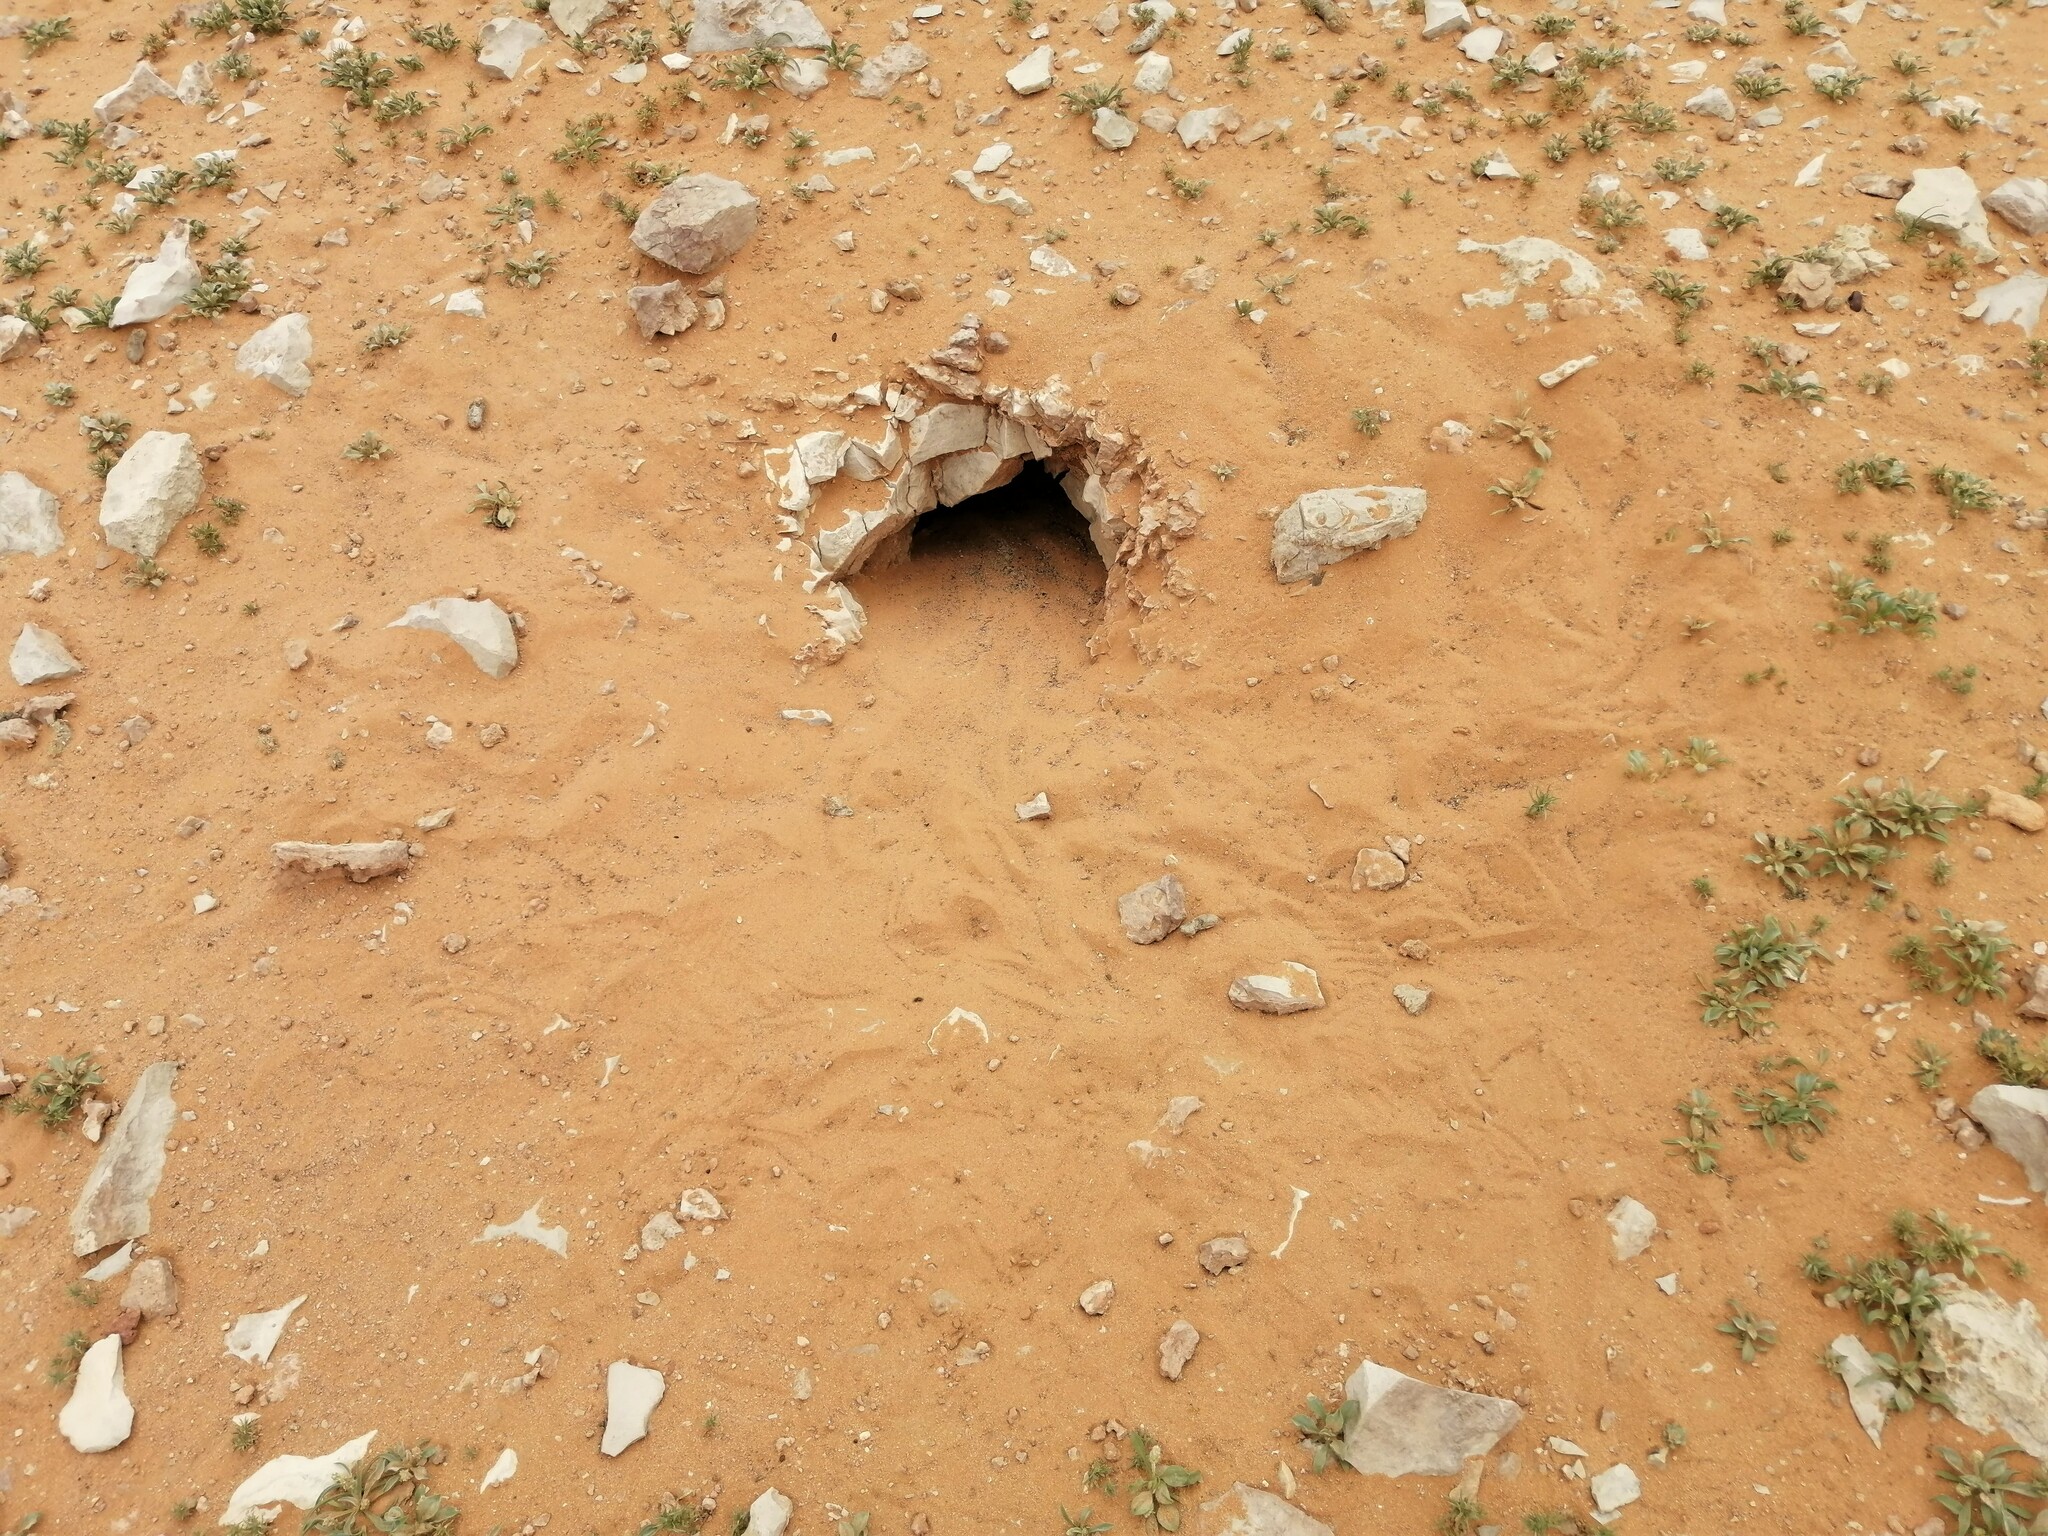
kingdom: Animalia
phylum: Chordata
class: Squamata
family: Agamidae
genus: Uromastyx
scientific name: Uromastyx aegyptia
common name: Egyptian mastigure
